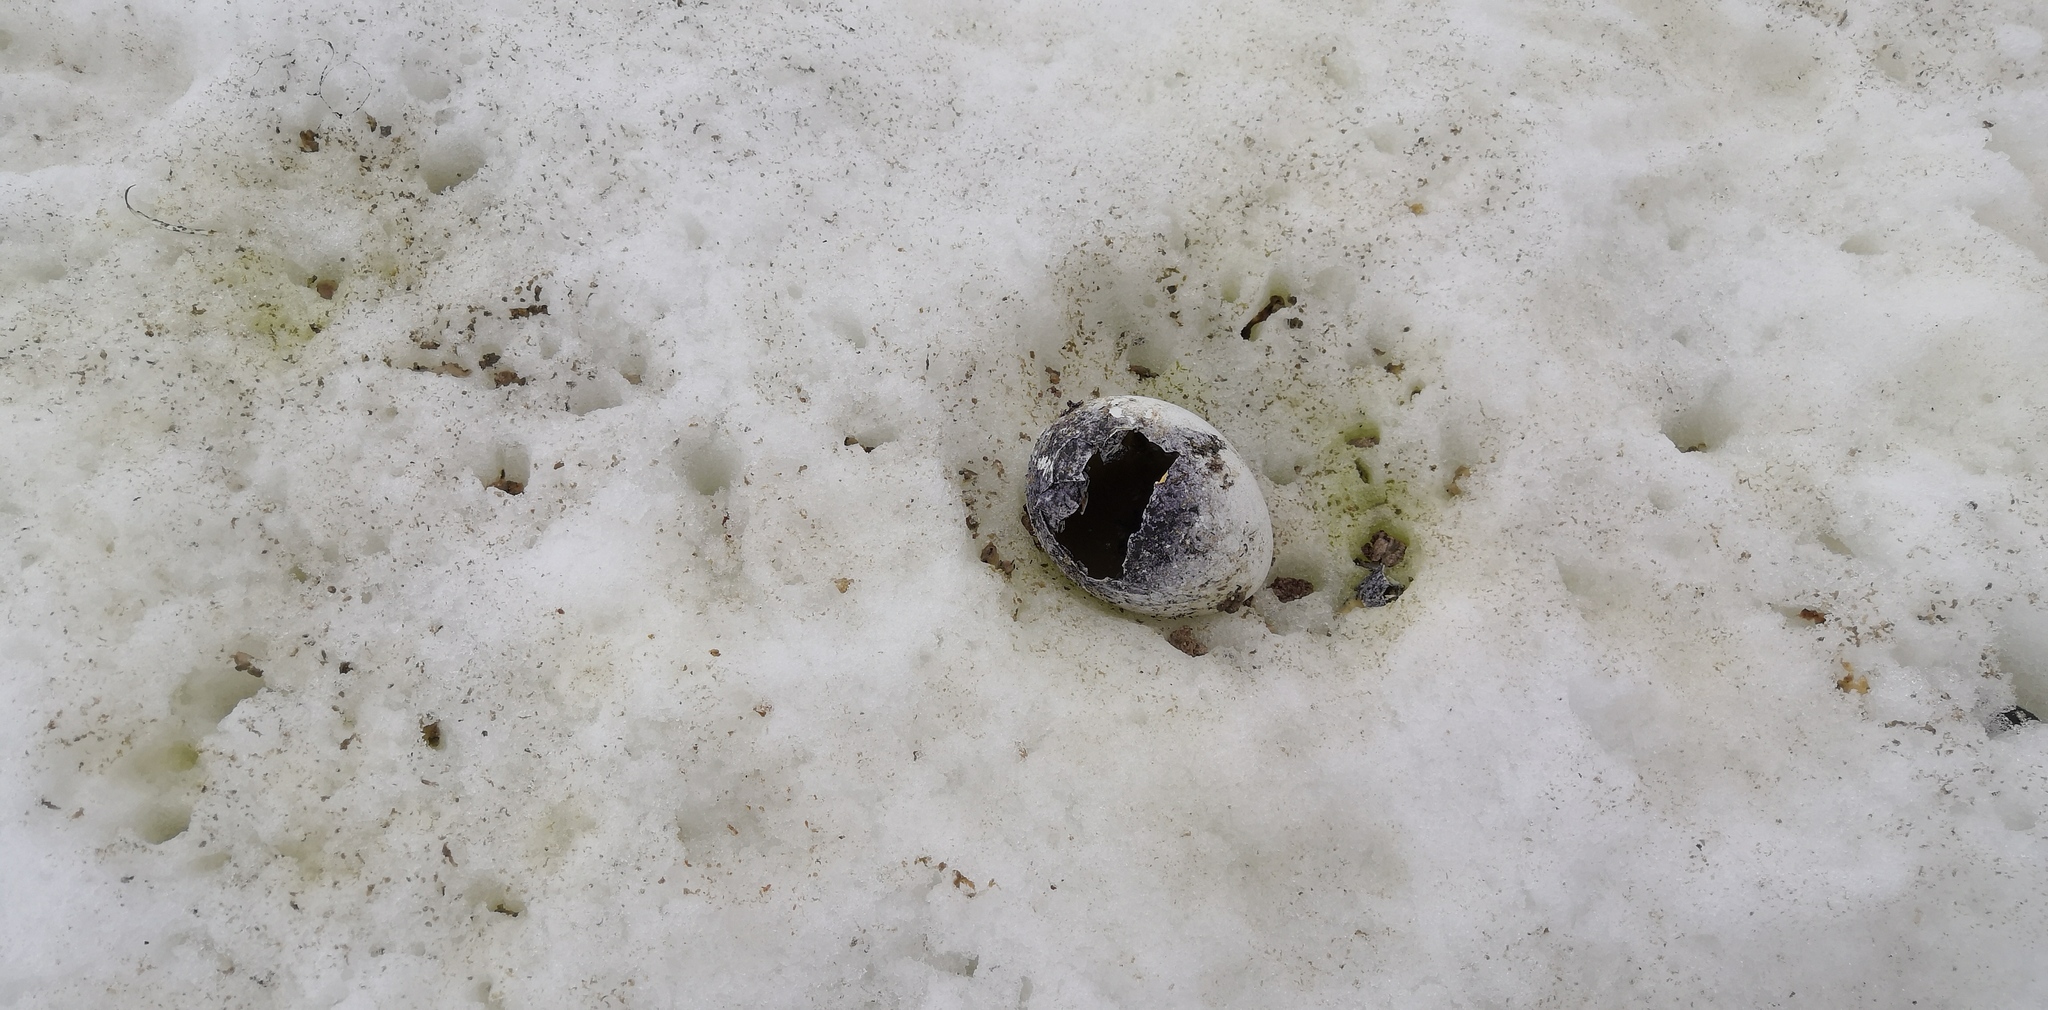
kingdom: Animalia
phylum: Chordata
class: Aves
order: Sphenisciformes
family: Spheniscidae
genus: Pygoscelis
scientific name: Pygoscelis papua
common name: Gentoo penguin
